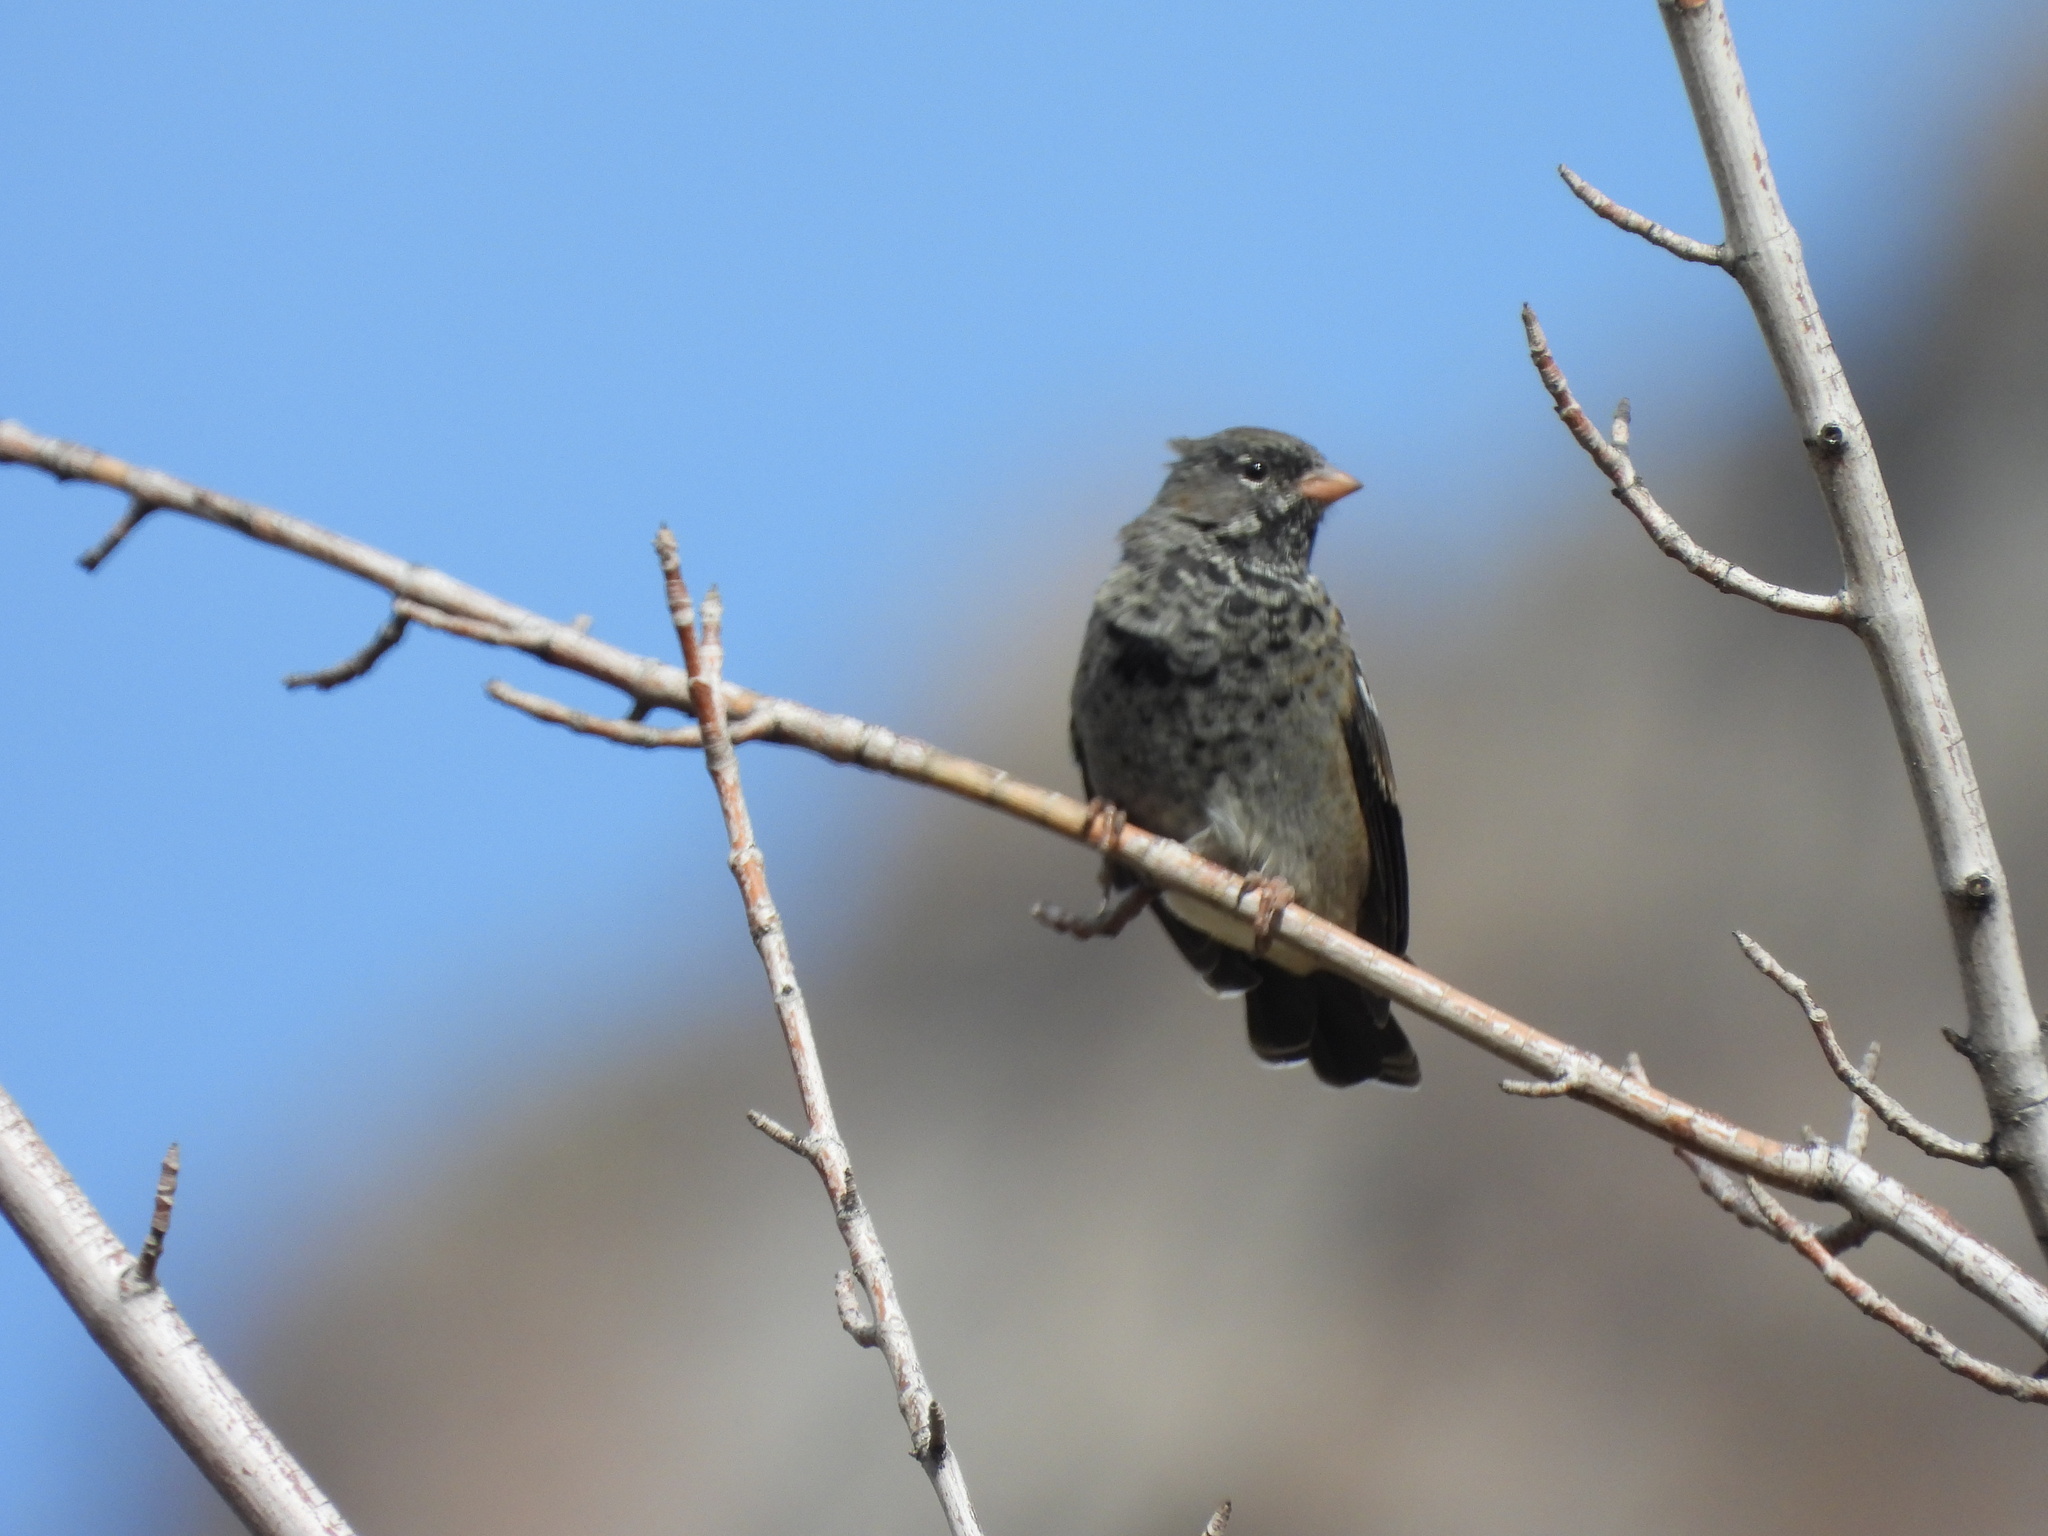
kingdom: Animalia
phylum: Chordata
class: Aves
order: Passeriformes
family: Thraupidae
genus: Rhopospina
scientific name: Rhopospina fruticeti
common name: Mourning sierra finch
